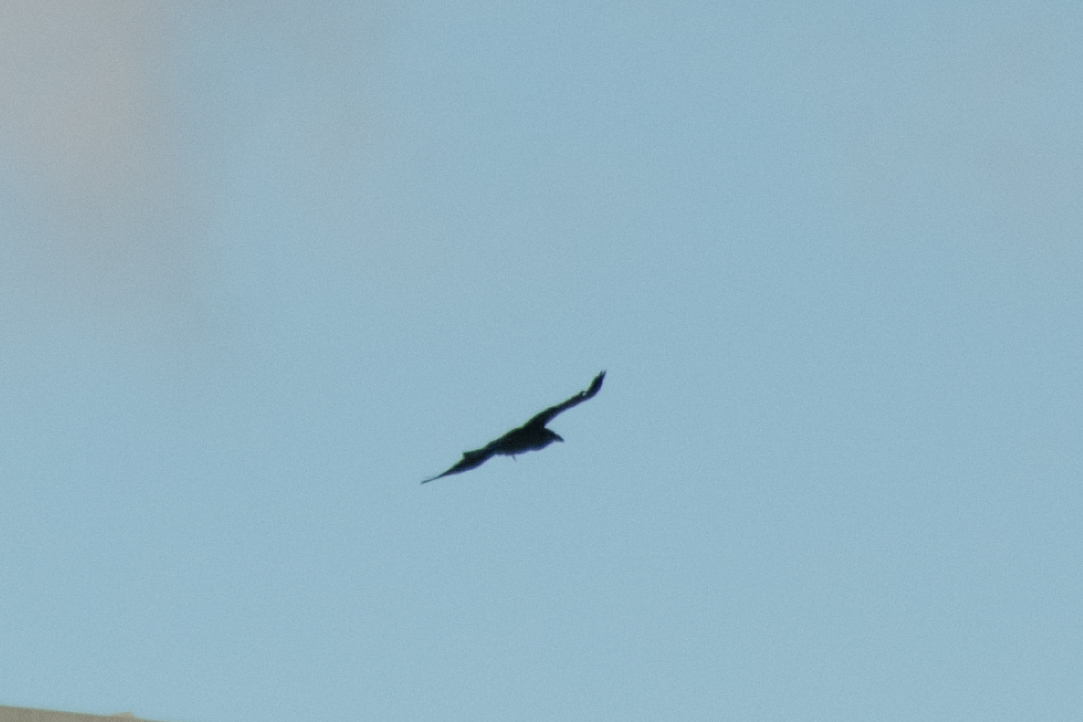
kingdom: Animalia
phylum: Chordata
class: Aves
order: Passeriformes
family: Corvidae
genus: Corvus
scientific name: Corvus corax
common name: Common raven
